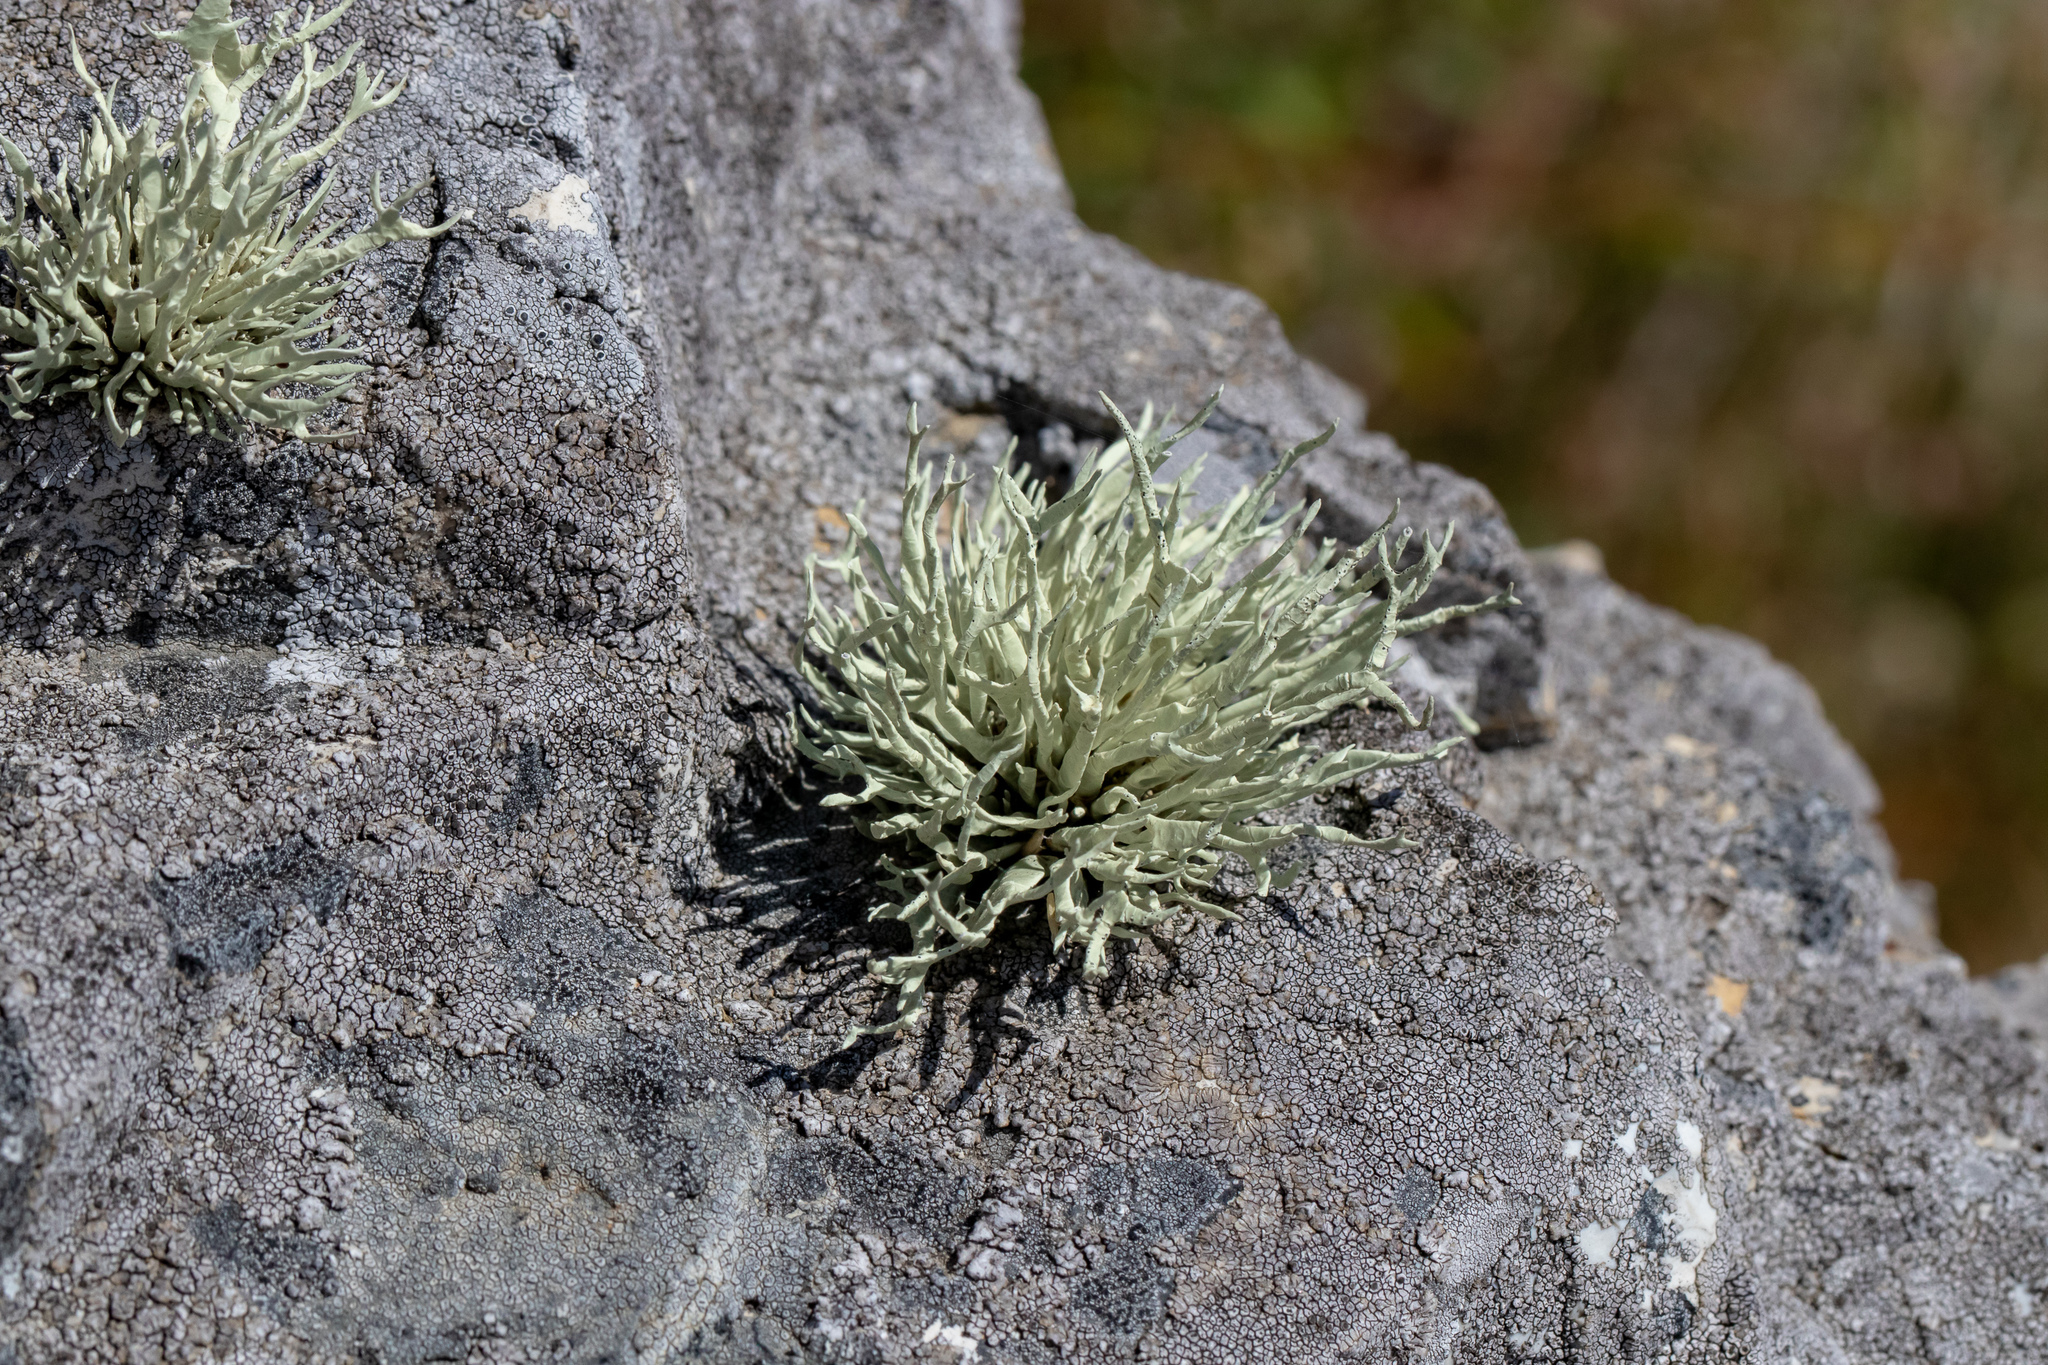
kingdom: Fungi
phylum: Ascomycota
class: Lecanoromycetes
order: Lecanorales
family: Ramalinaceae
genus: Niebla
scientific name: Niebla homalea
